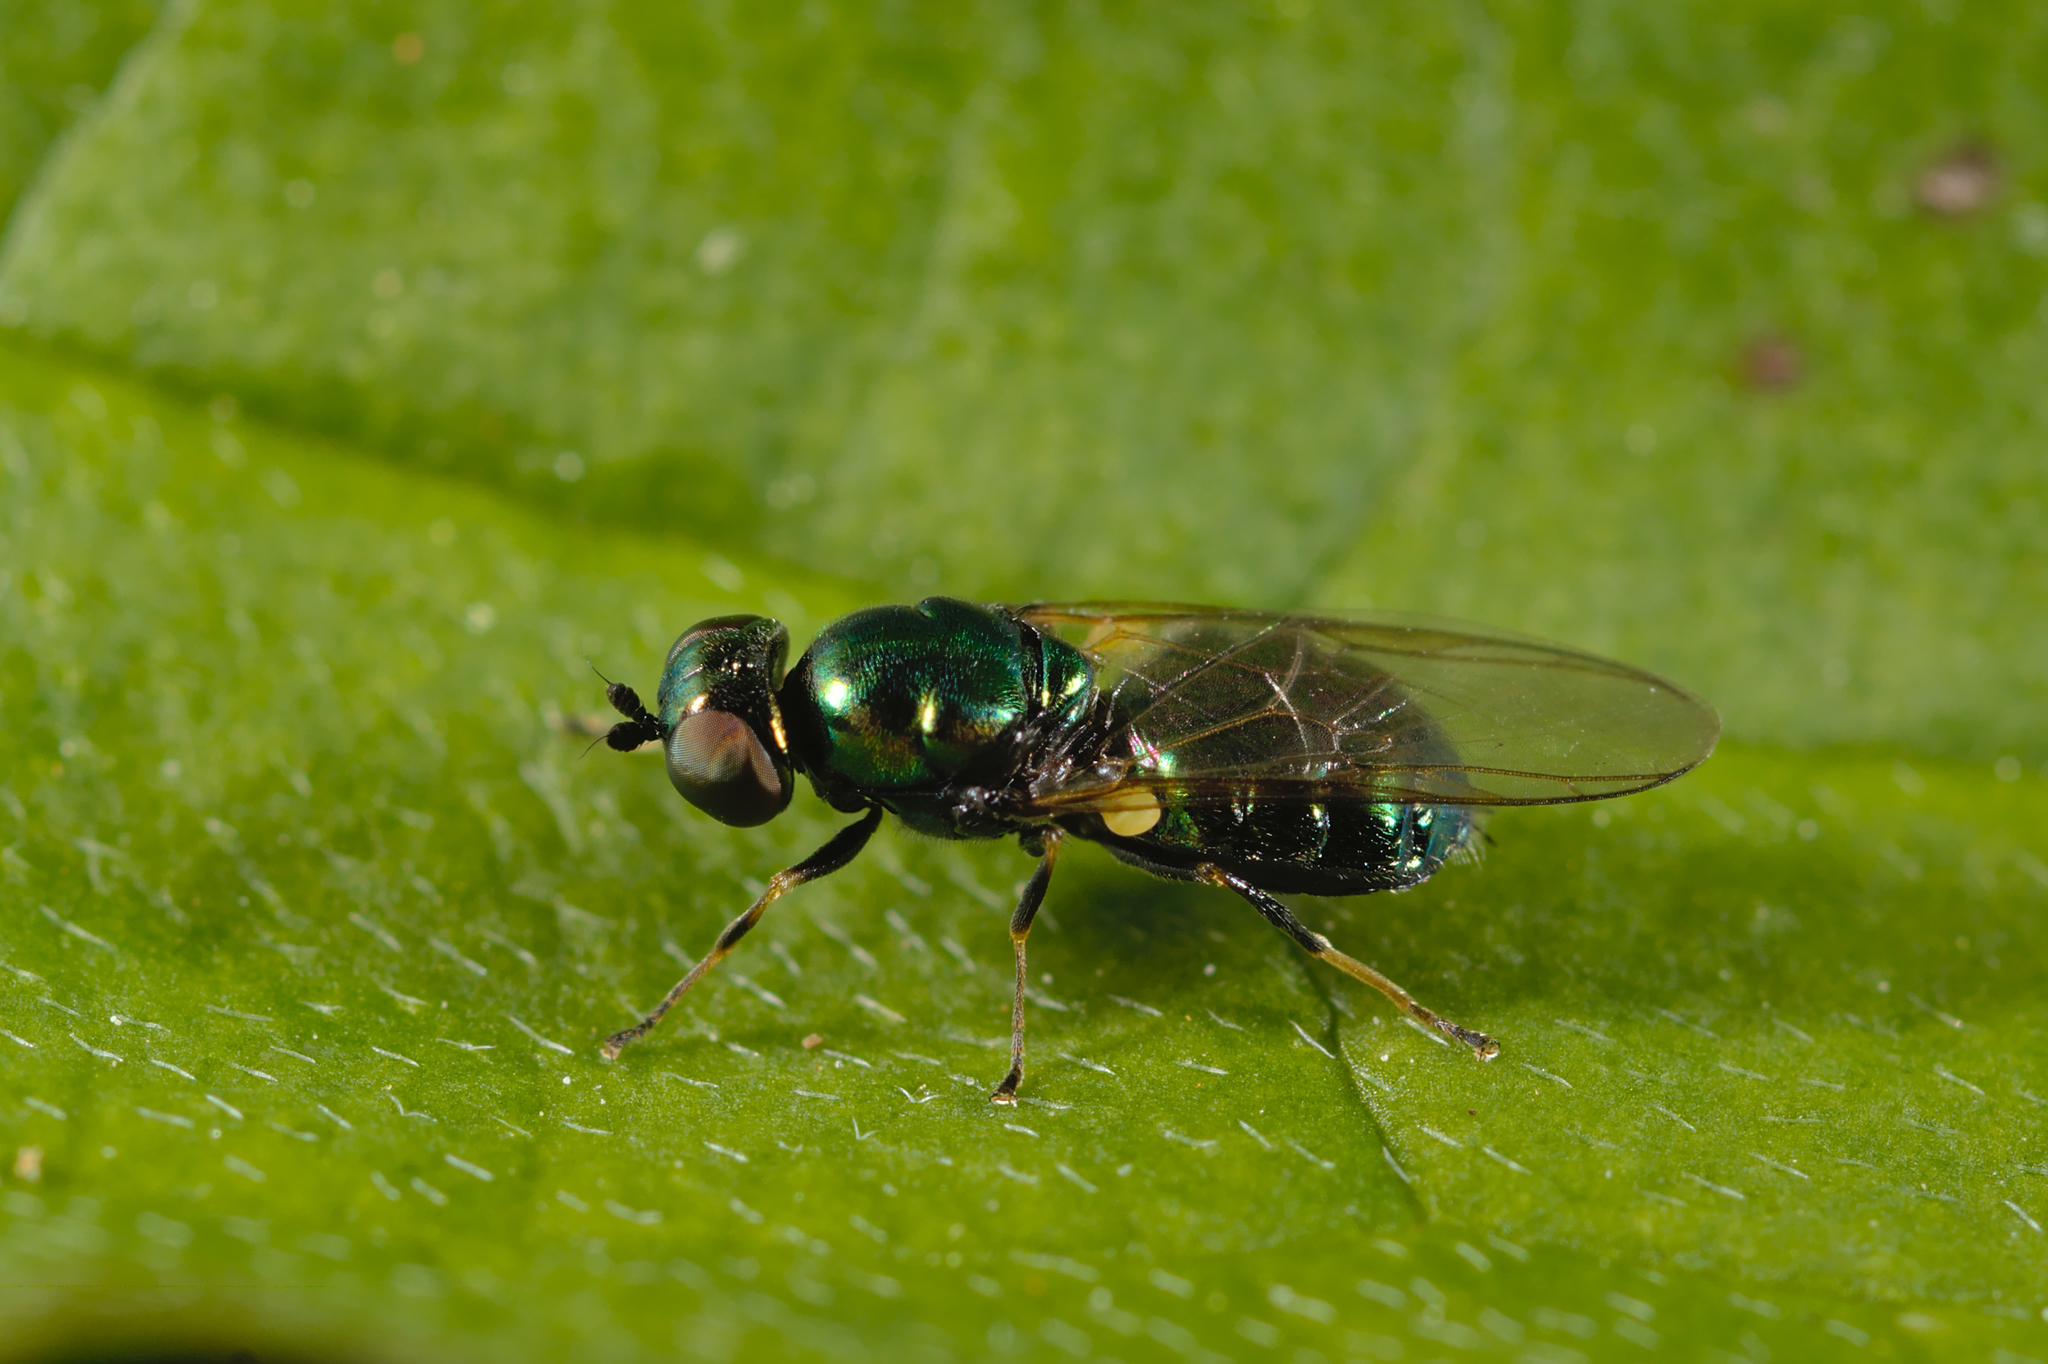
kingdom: Animalia
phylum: Arthropoda
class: Insecta
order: Diptera
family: Stratiomyidae
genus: Microchrysa
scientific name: Microchrysa polita
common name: Black-horned gem
